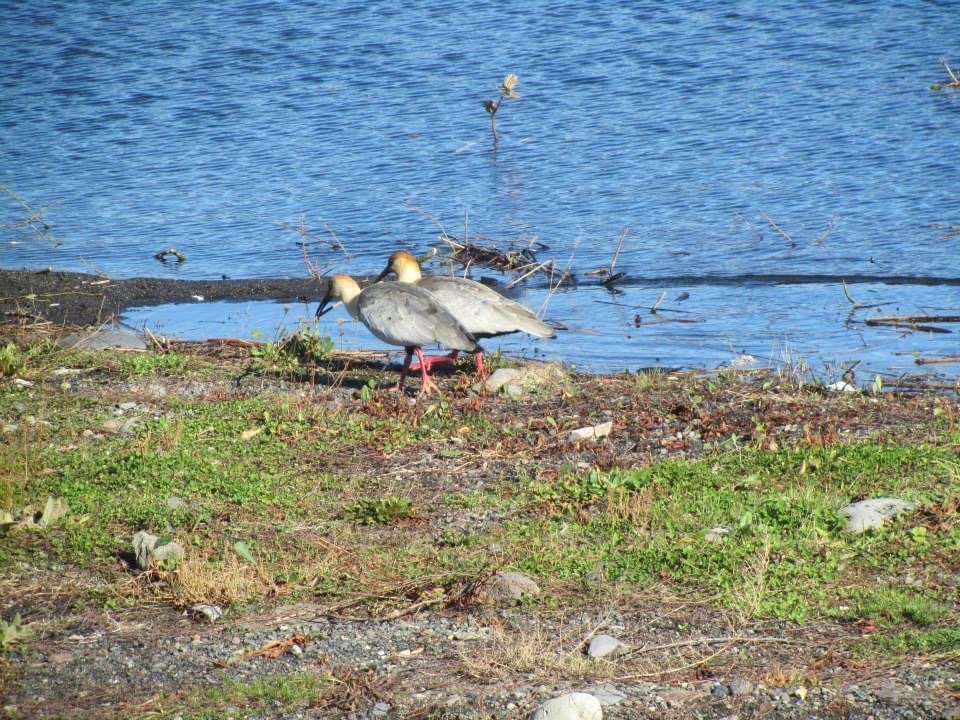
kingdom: Animalia
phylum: Chordata
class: Aves
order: Pelecaniformes
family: Threskiornithidae
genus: Theristicus
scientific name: Theristicus melanopis
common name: Black-faced ibis
